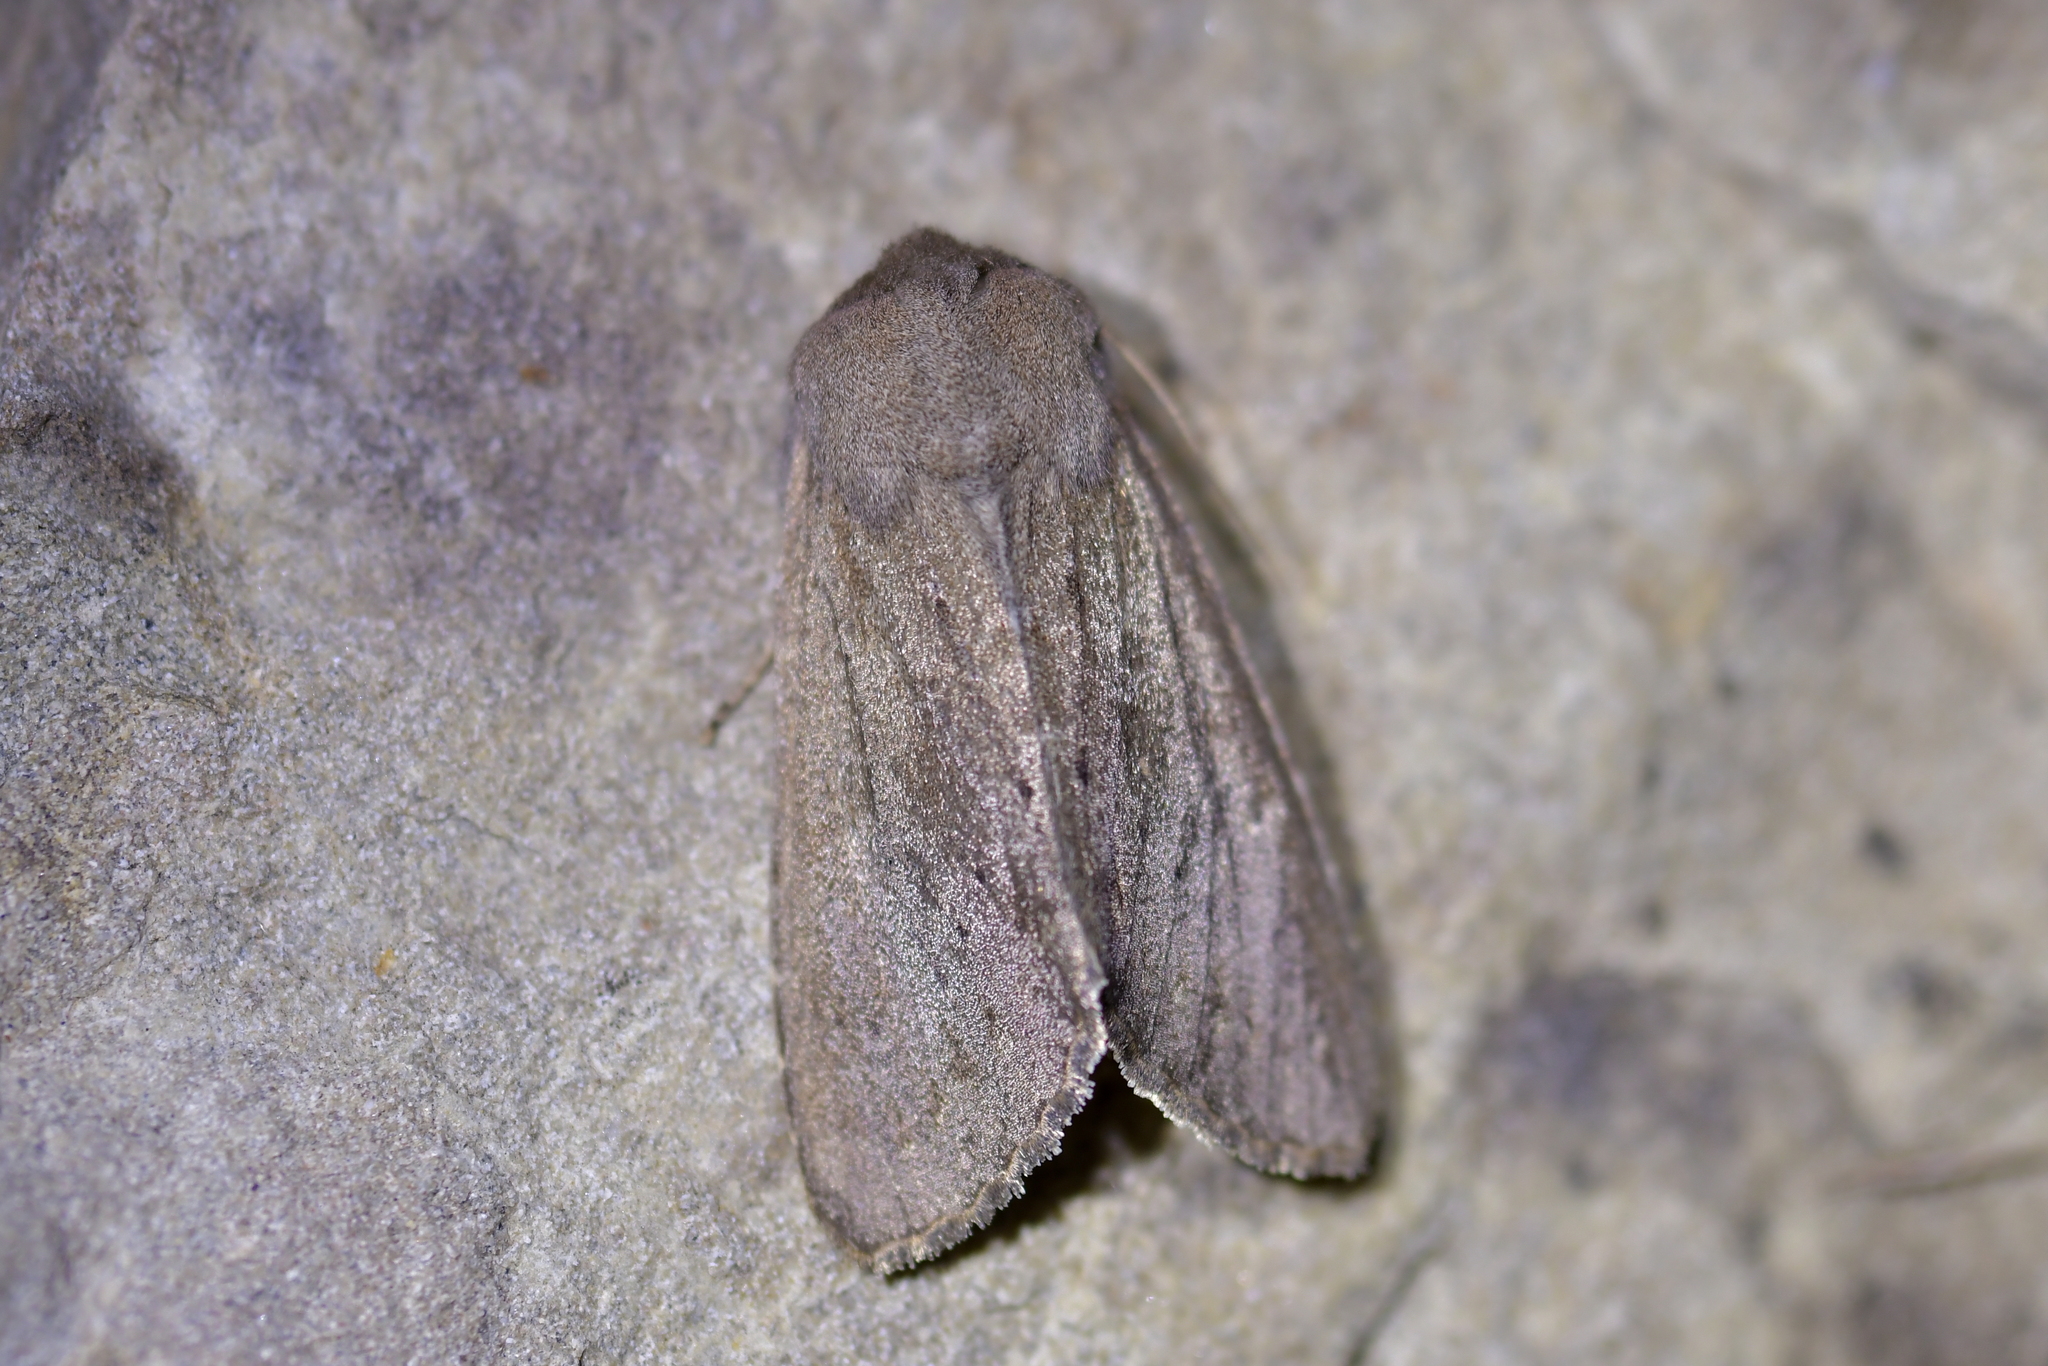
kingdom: Animalia
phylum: Arthropoda
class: Insecta
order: Lepidoptera
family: Noctuidae
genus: Ichneutica
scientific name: Ichneutica nullifera
